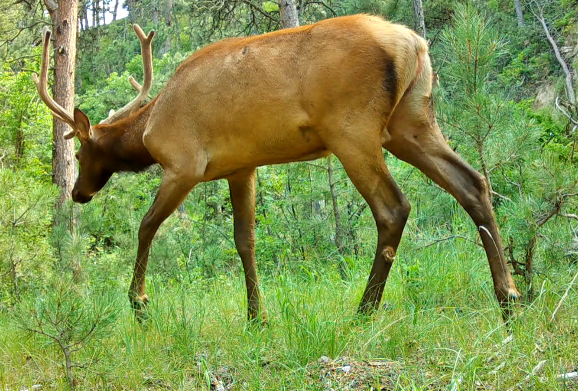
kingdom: Animalia
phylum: Chordata
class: Mammalia
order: Artiodactyla
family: Cervidae
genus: Cervus
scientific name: Cervus elaphus
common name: Red deer
